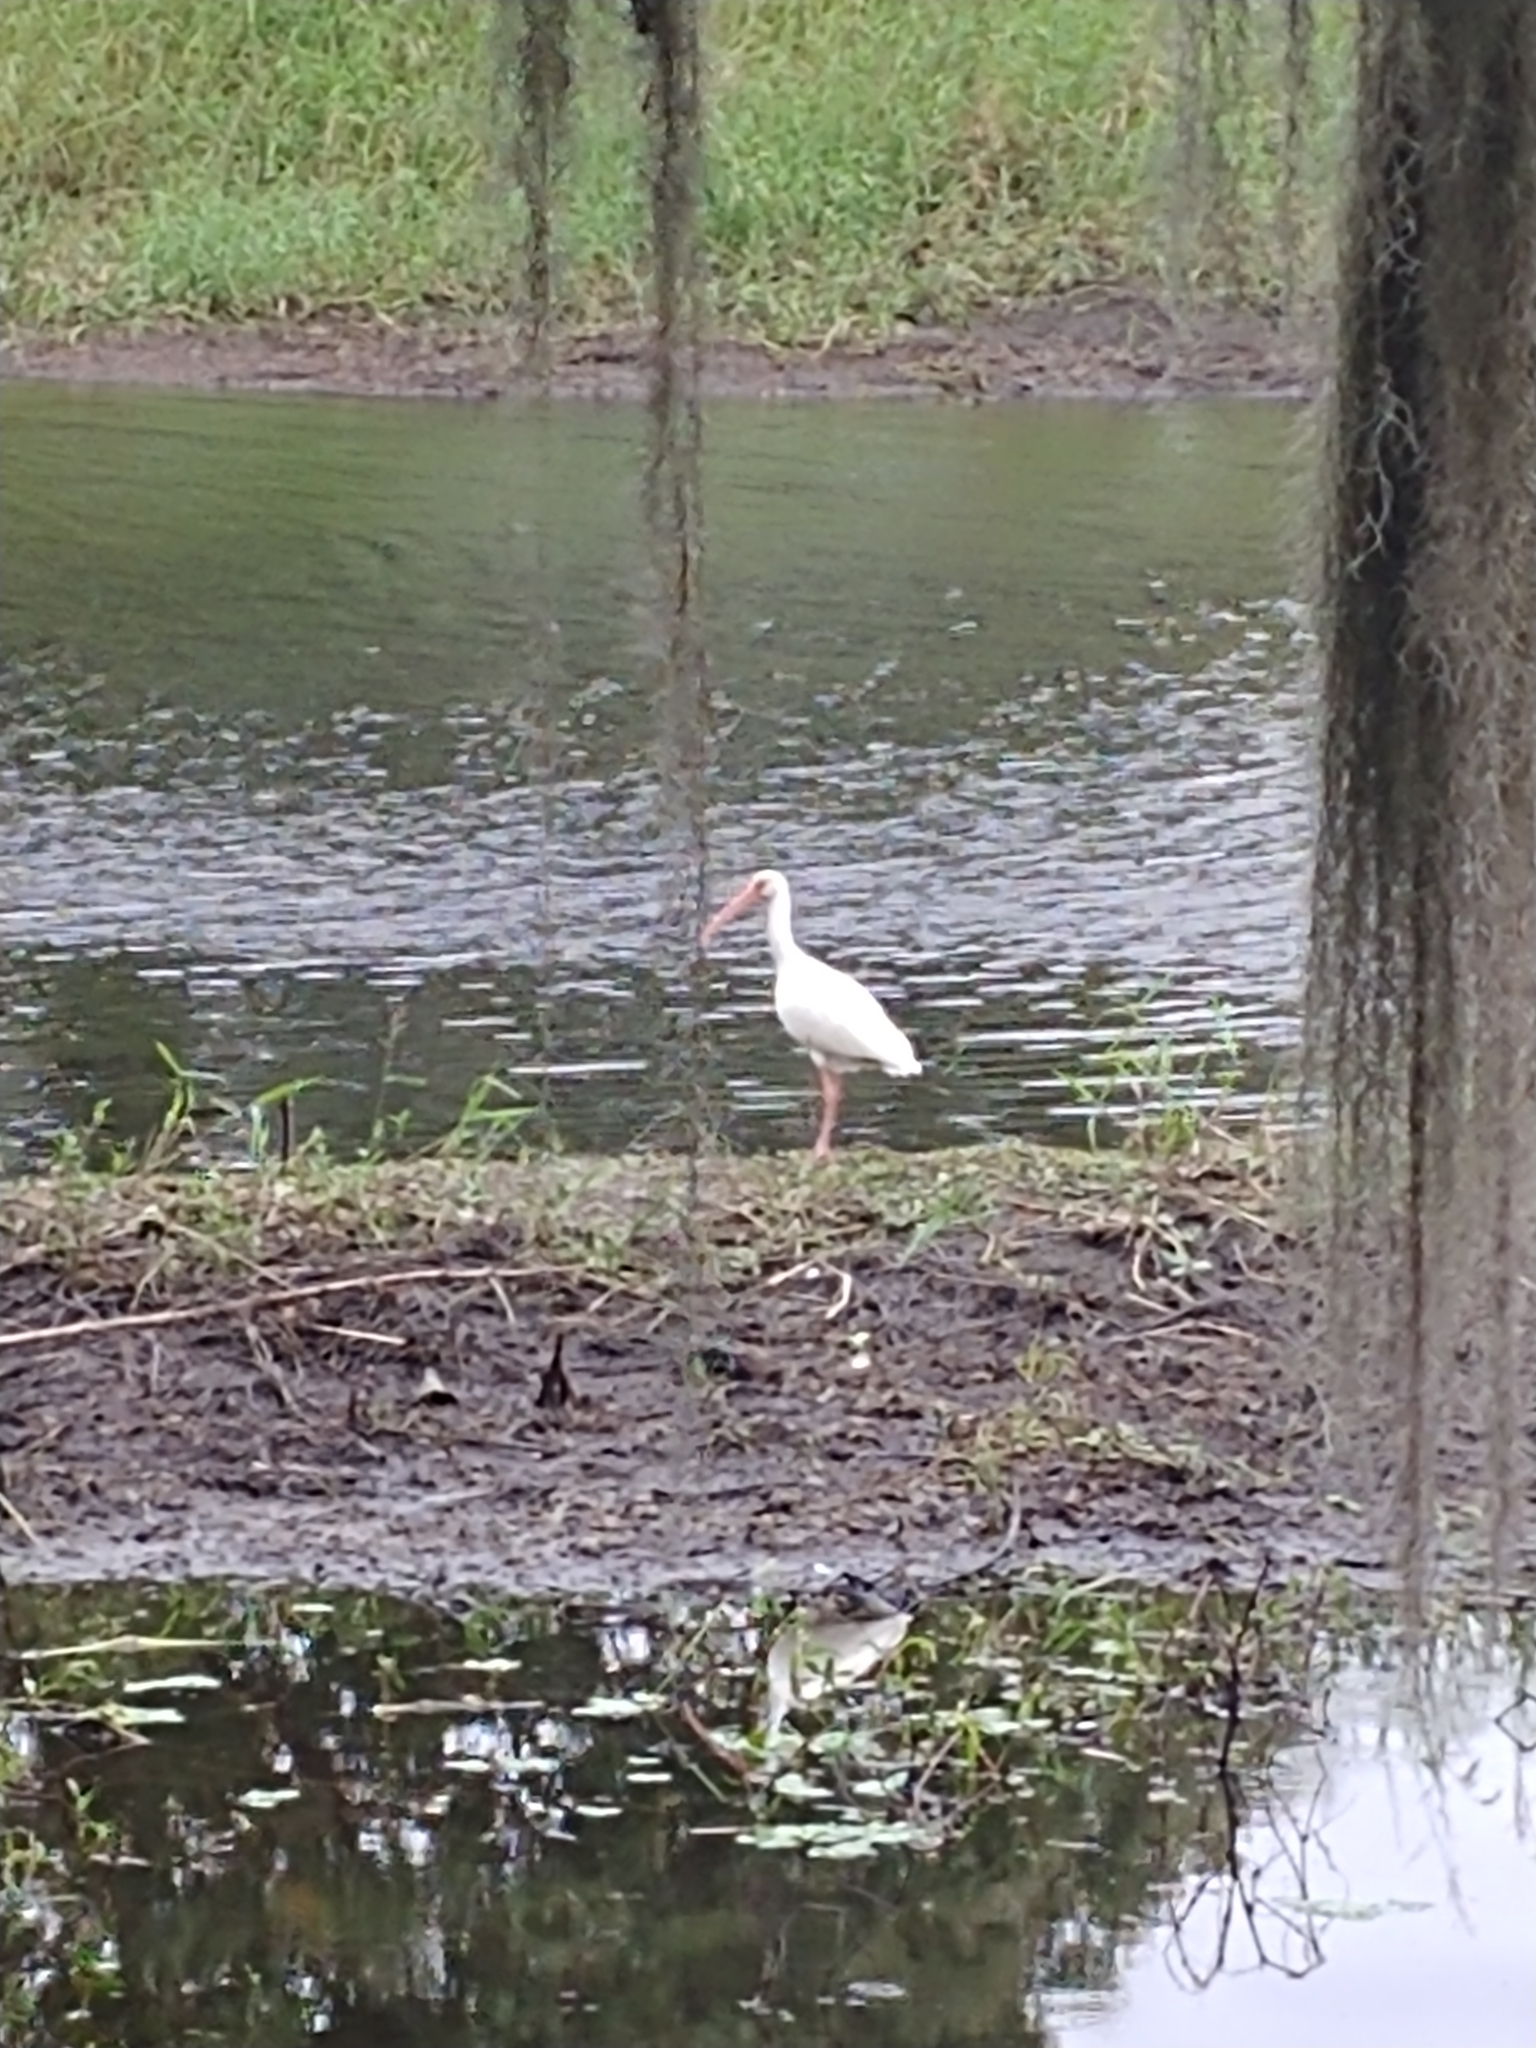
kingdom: Animalia
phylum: Chordata
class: Aves
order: Pelecaniformes
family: Threskiornithidae
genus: Eudocimus
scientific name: Eudocimus albus
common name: White ibis
